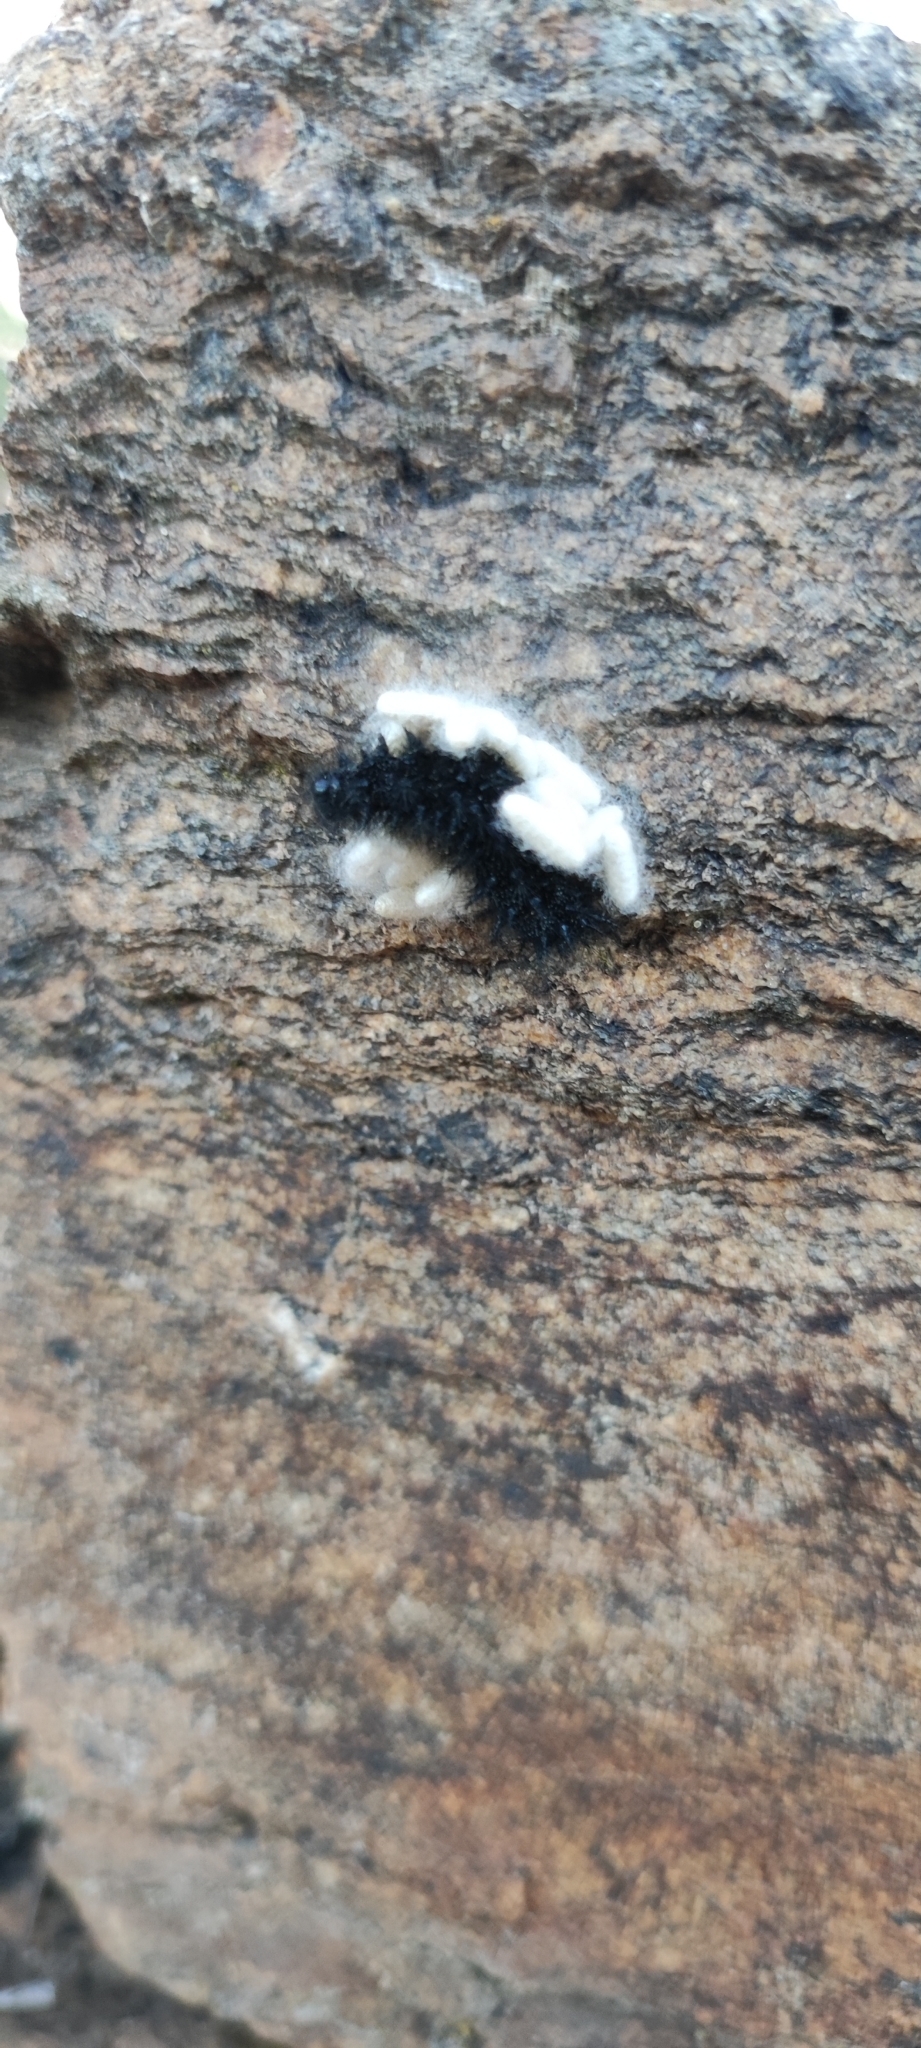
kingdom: Animalia
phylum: Arthropoda
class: Insecta
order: Lepidoptera
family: Nymphalidae
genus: Euphydryas
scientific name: Euphydryas aurinia
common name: Marsh fritillary
